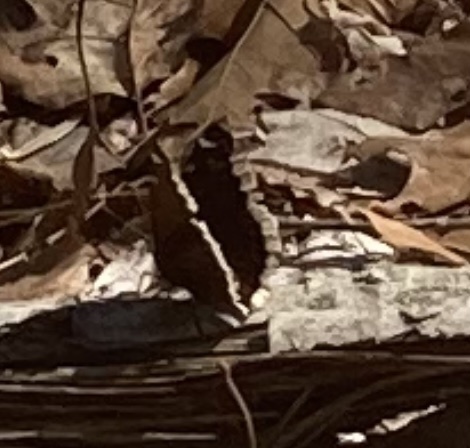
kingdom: Animalia
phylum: Arthropoda
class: Insecta
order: Lepidoptera
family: Nymphalidae
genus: Nymphalis
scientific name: Nymphalis antiopa
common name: Camberwell beauty
